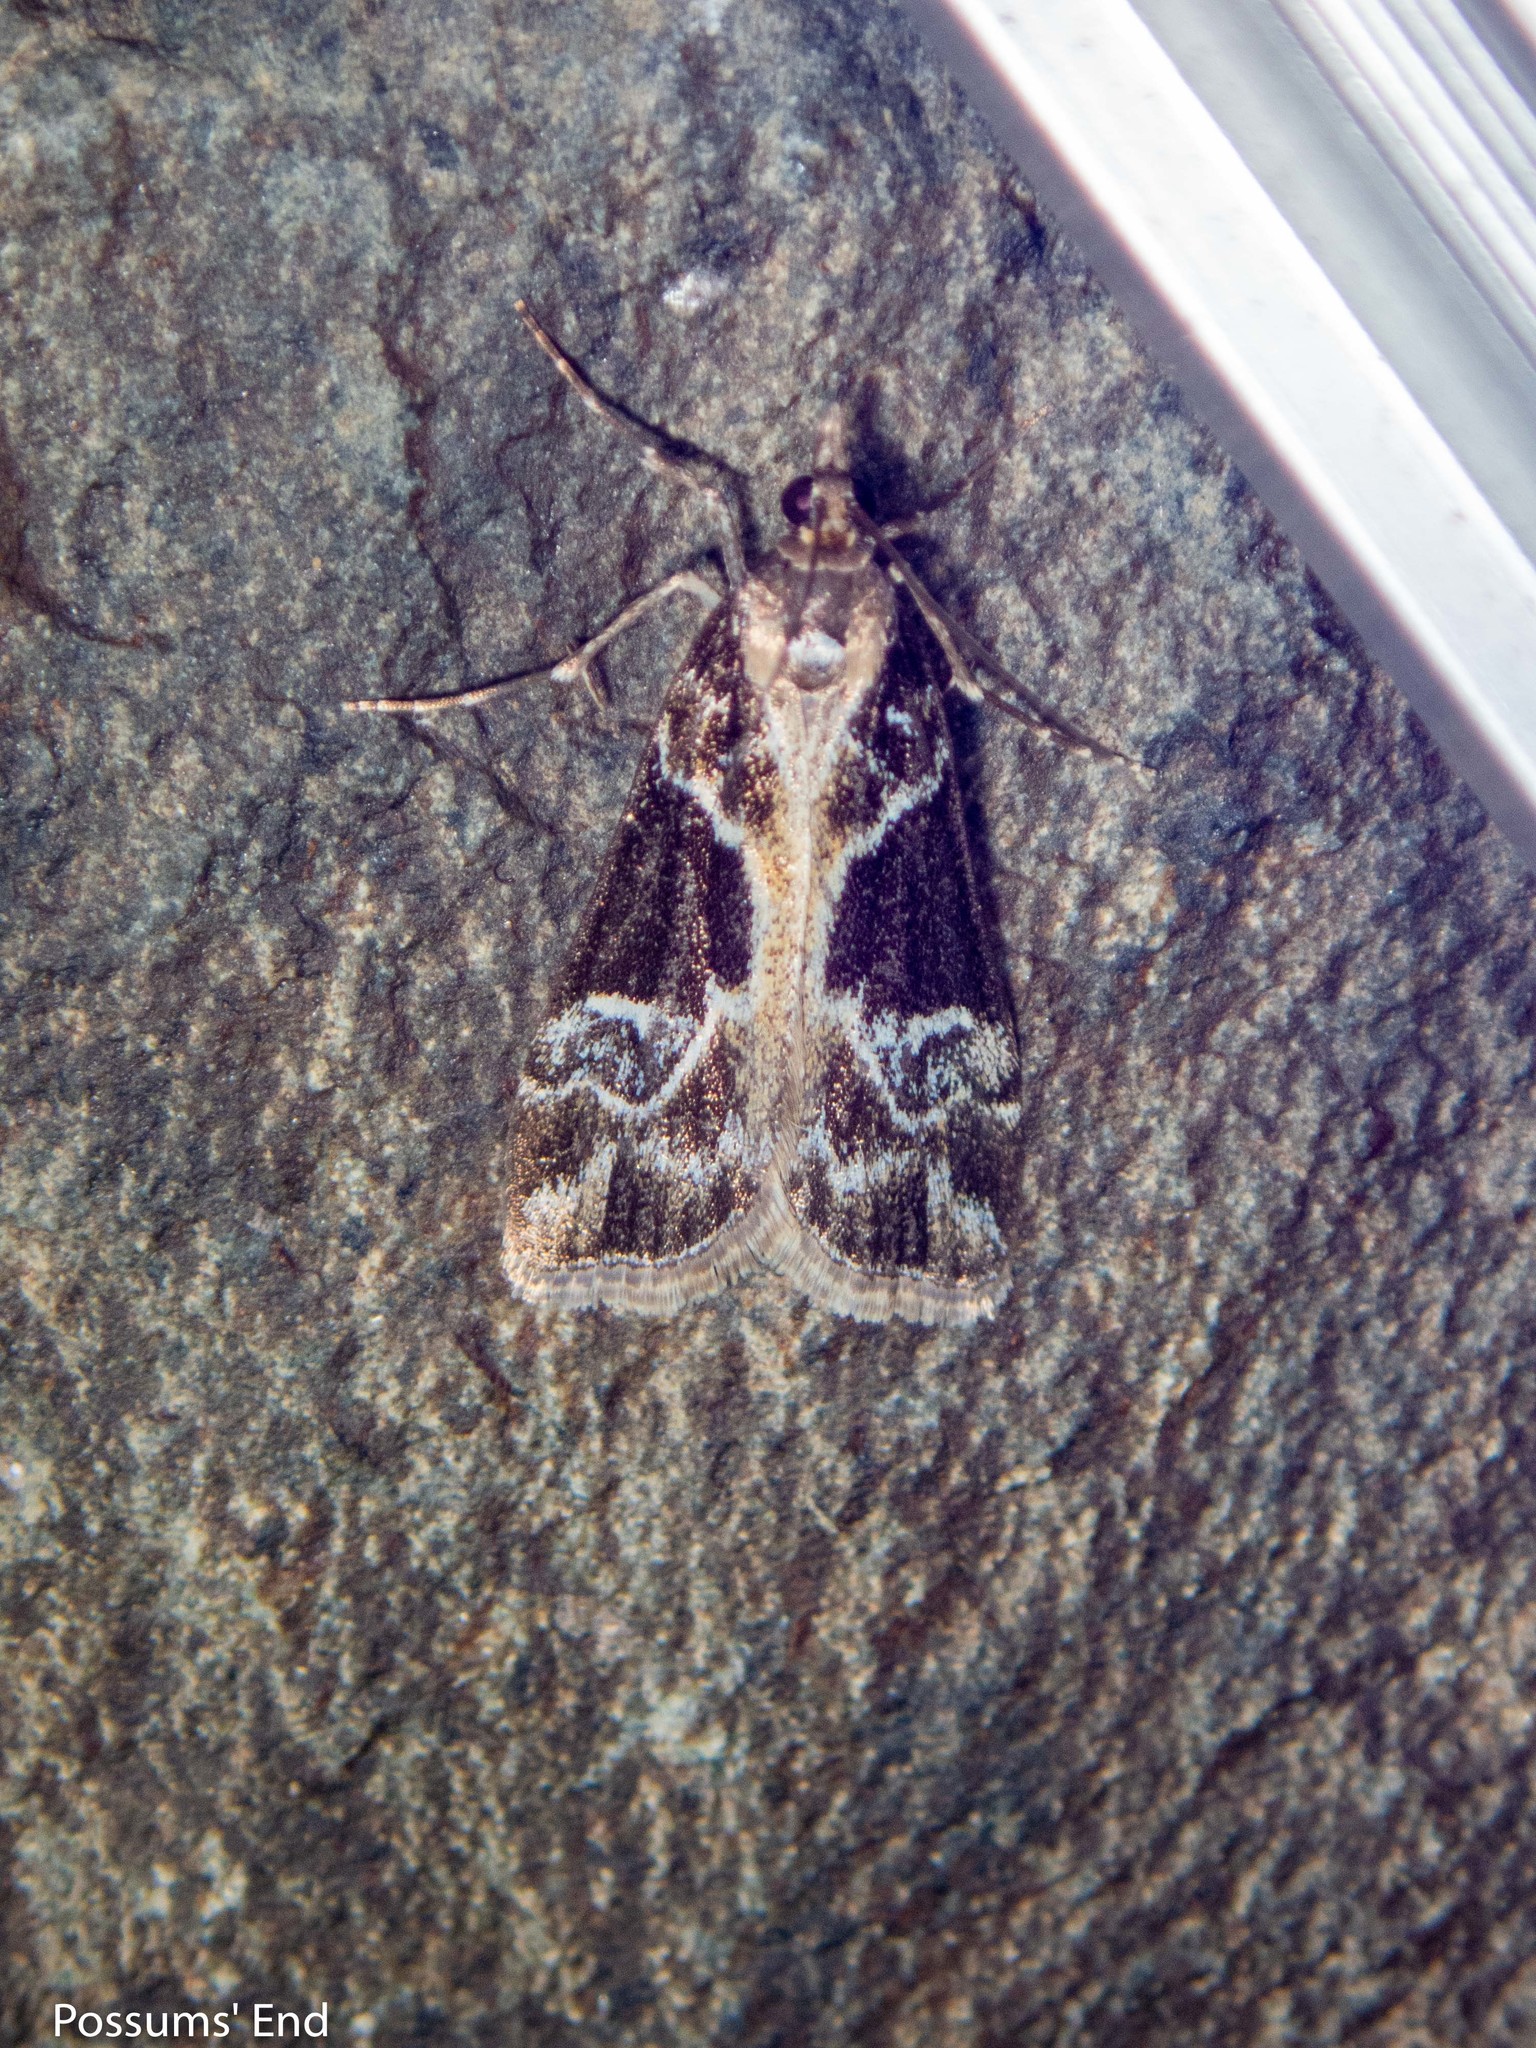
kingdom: Animalia
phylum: Arthropoda
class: Insecta
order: Lepidoptera
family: Crambidae
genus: Eudonia
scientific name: Eudonia melanaegis
